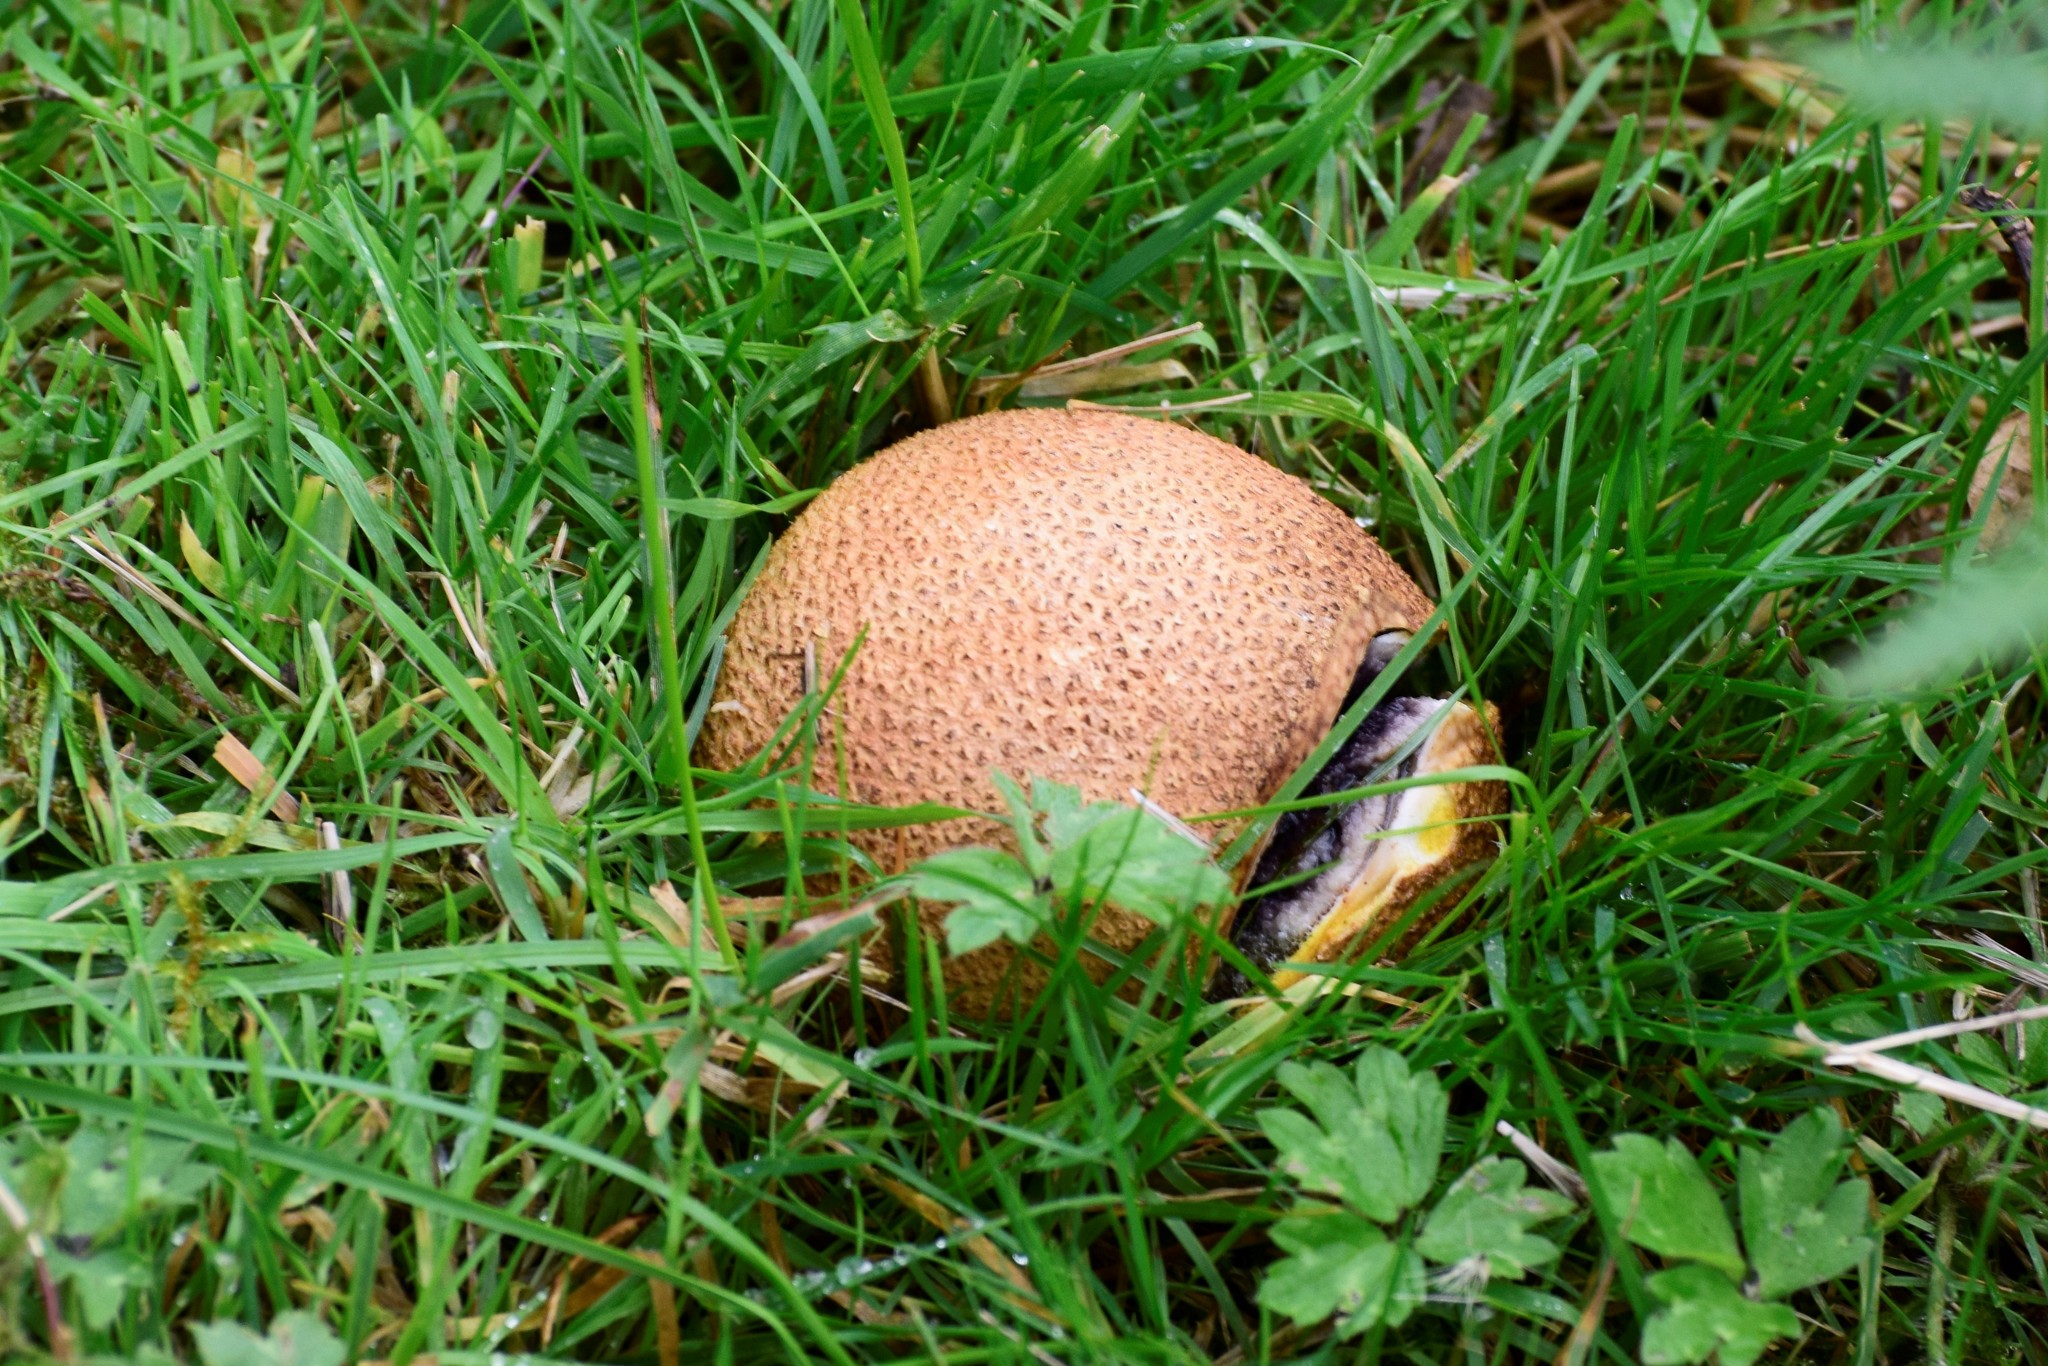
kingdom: Fungi
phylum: Basidiomycota
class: Agaricomycetes
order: Boletales
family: Sclerodermataceae
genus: Scleroderma
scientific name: Scleroderma citrinum
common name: Common earthball
